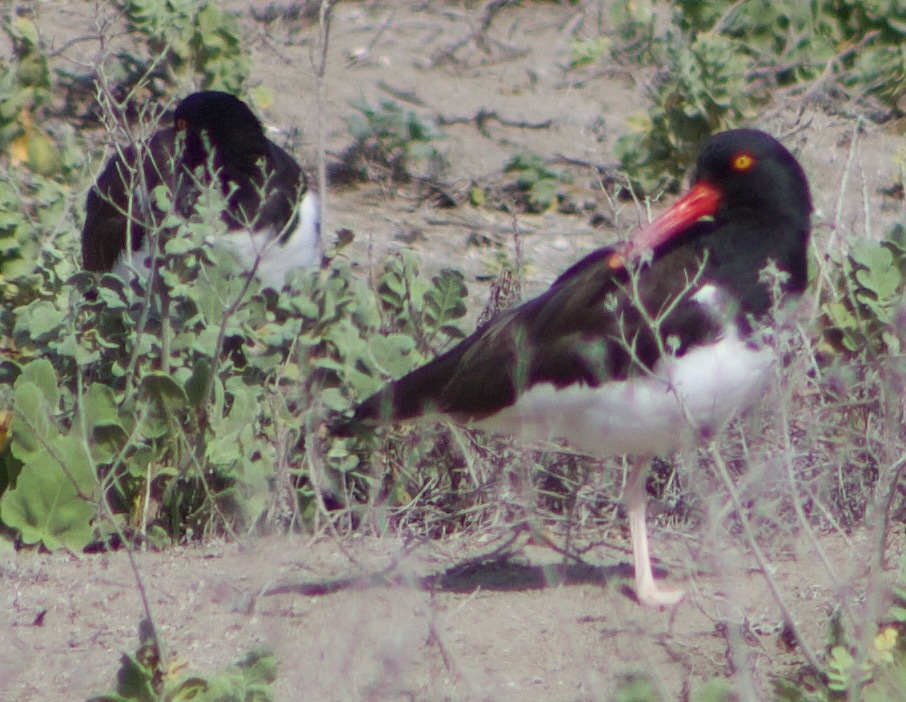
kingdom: Animalia
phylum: Chordata
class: Aves
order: Charadriiformes
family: Haematopodidae
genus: Haematopus
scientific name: Haematopus palliatus
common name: American oystercatcher
